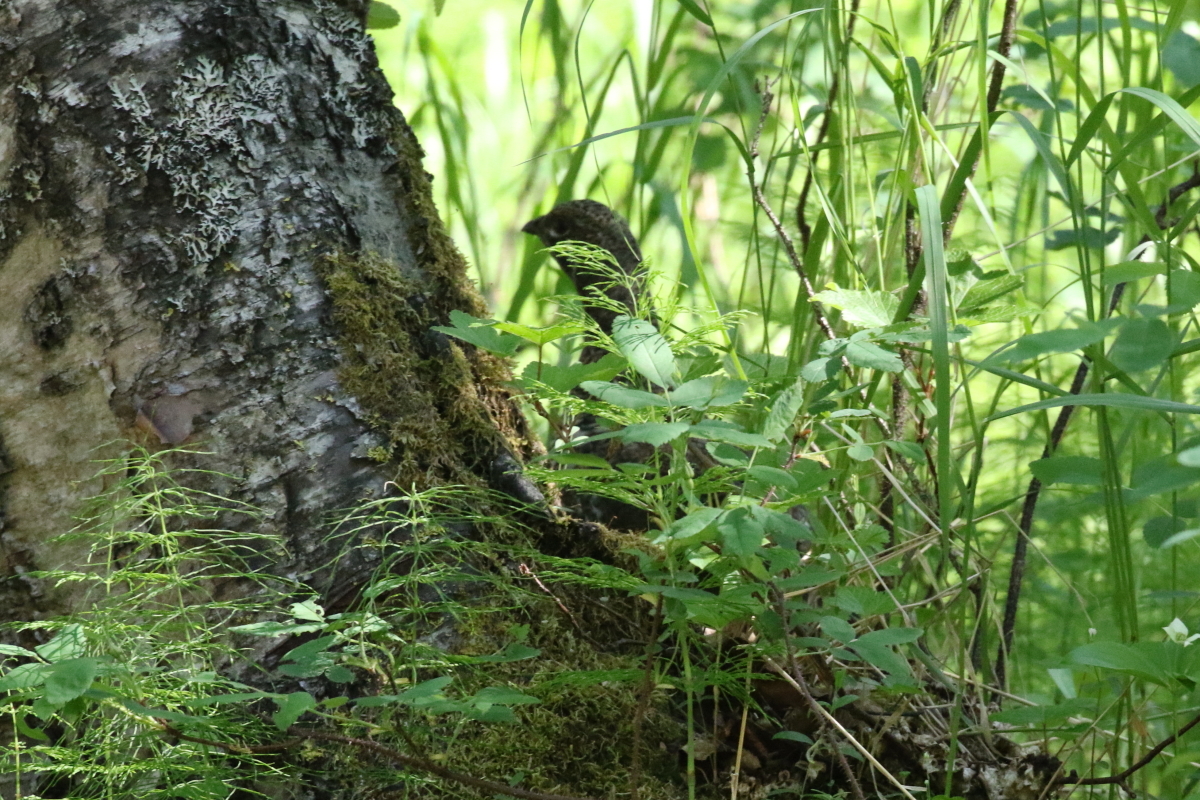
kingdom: Animalia
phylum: Chordata
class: Aves
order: Galliformes
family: Phasianidae
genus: Canachites
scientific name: Canachites canadensis
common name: Spruce grouse
